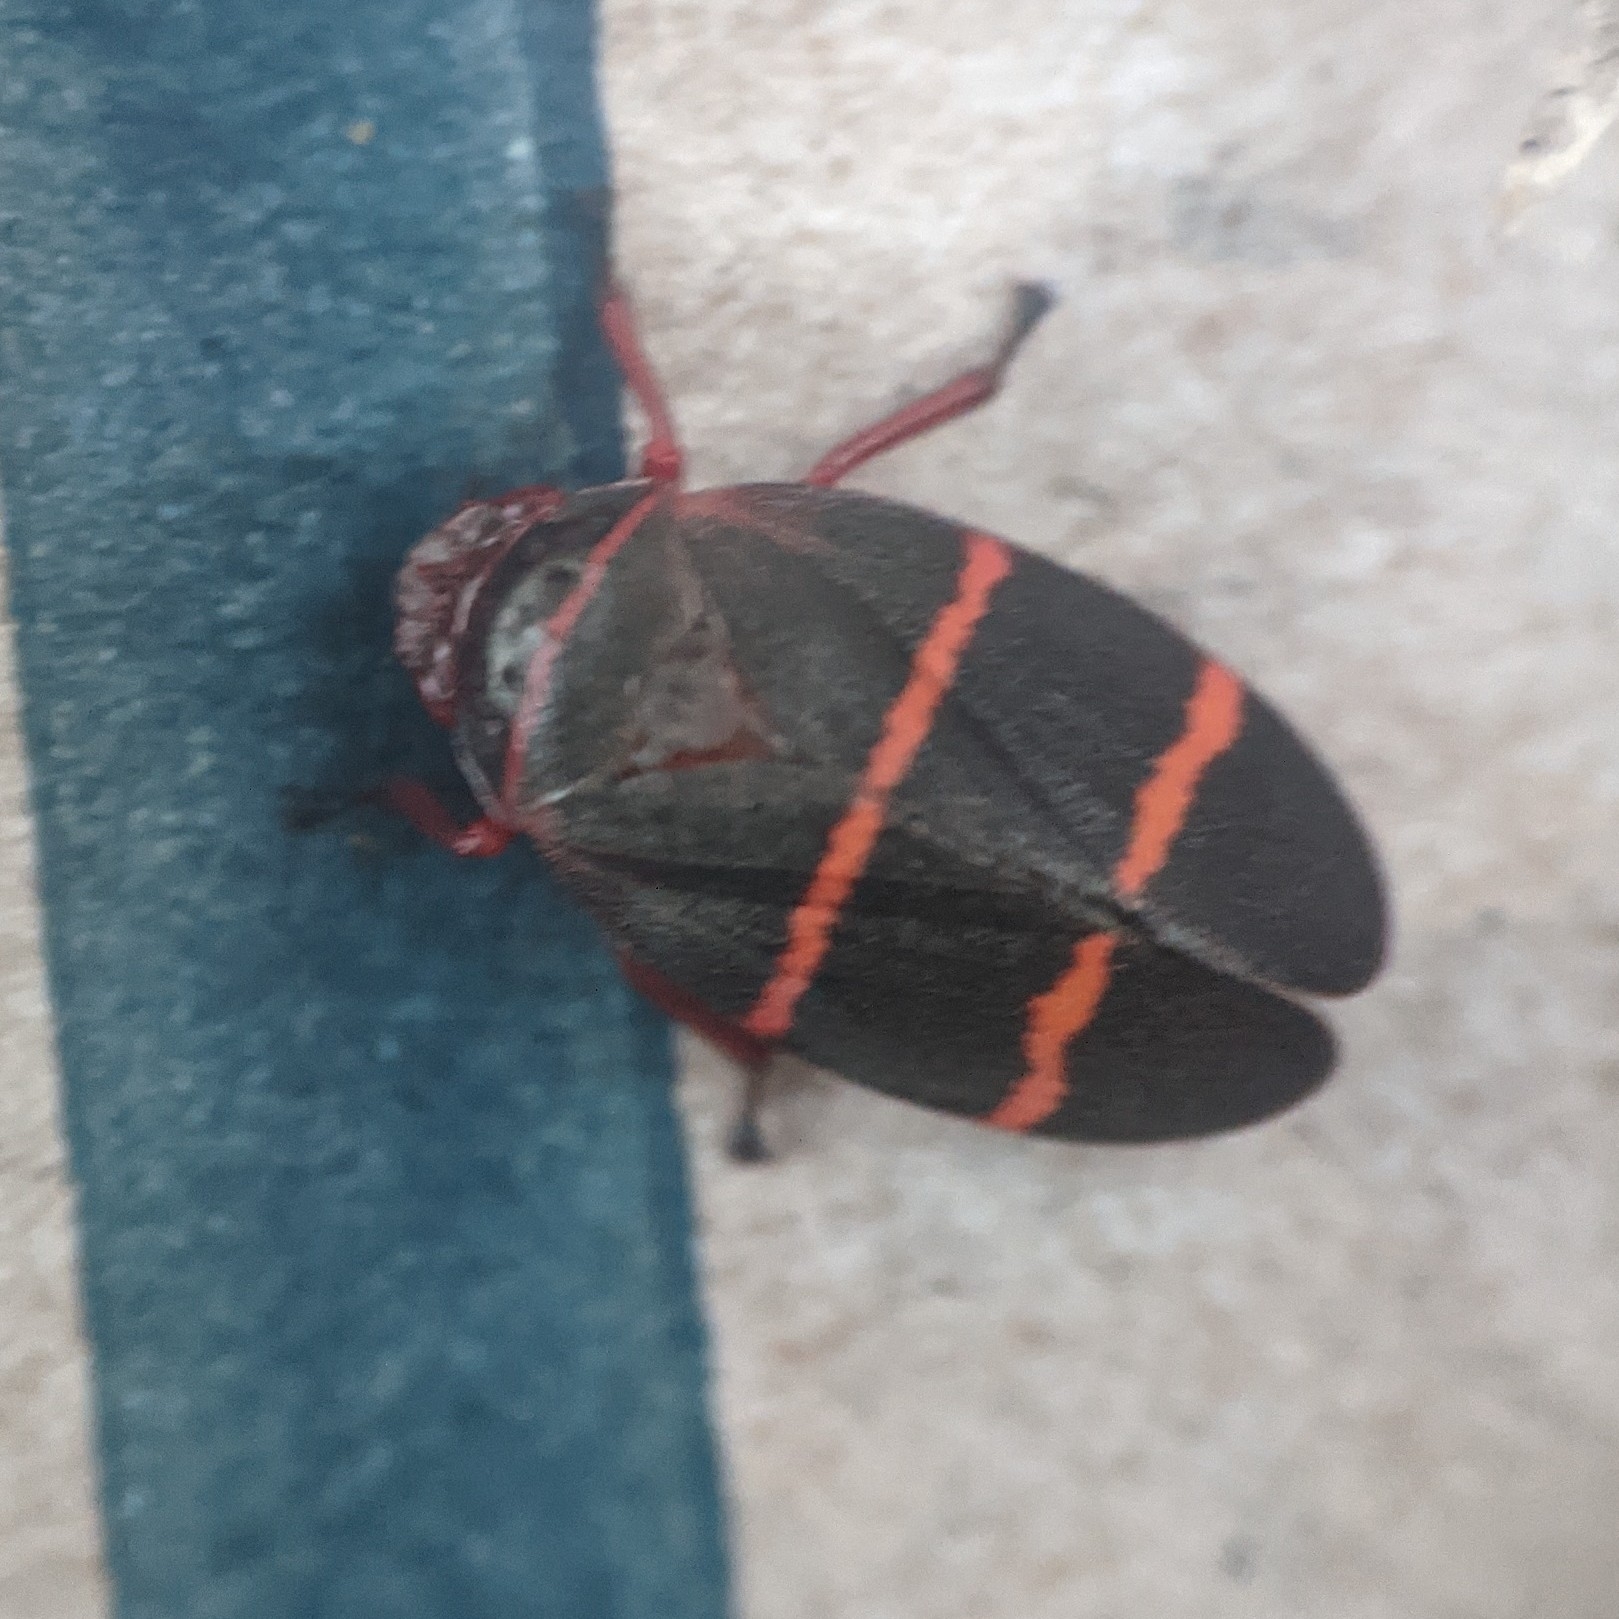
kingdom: Animalia
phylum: Arthropoda
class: Insecta
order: Hemiptera
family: Cercopidae
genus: Prosapia
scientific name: Prosapia bicincta
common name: Twolined spittlebug
